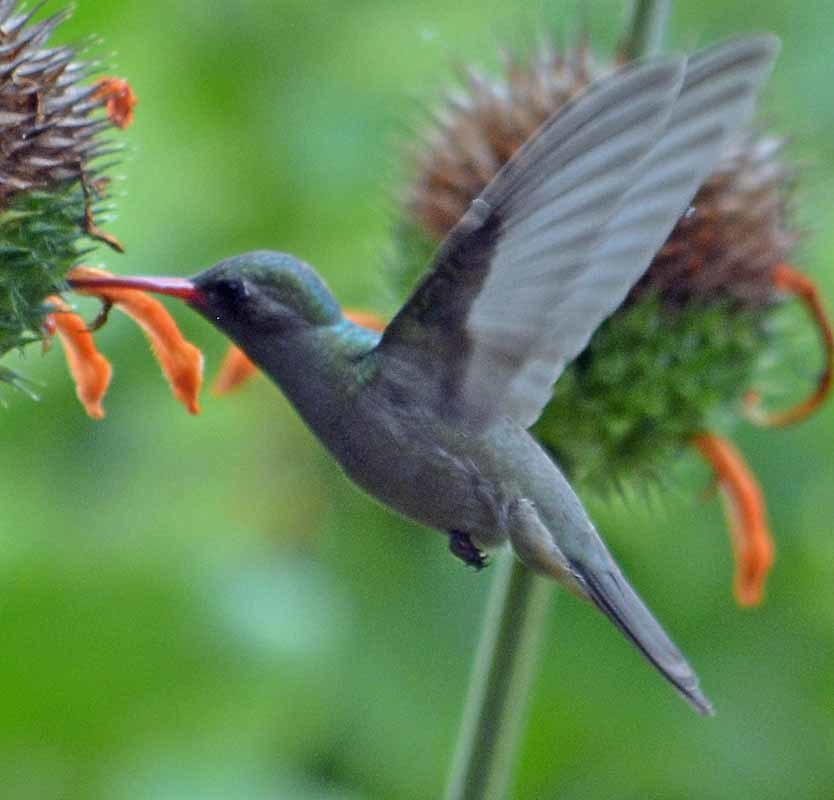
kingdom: Animalia
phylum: Chordata
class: Aves
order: Apodiformes
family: Trochilidae
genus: Cynanthus
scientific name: Cynanthus latirostris
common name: Broad-billed hummingbird
